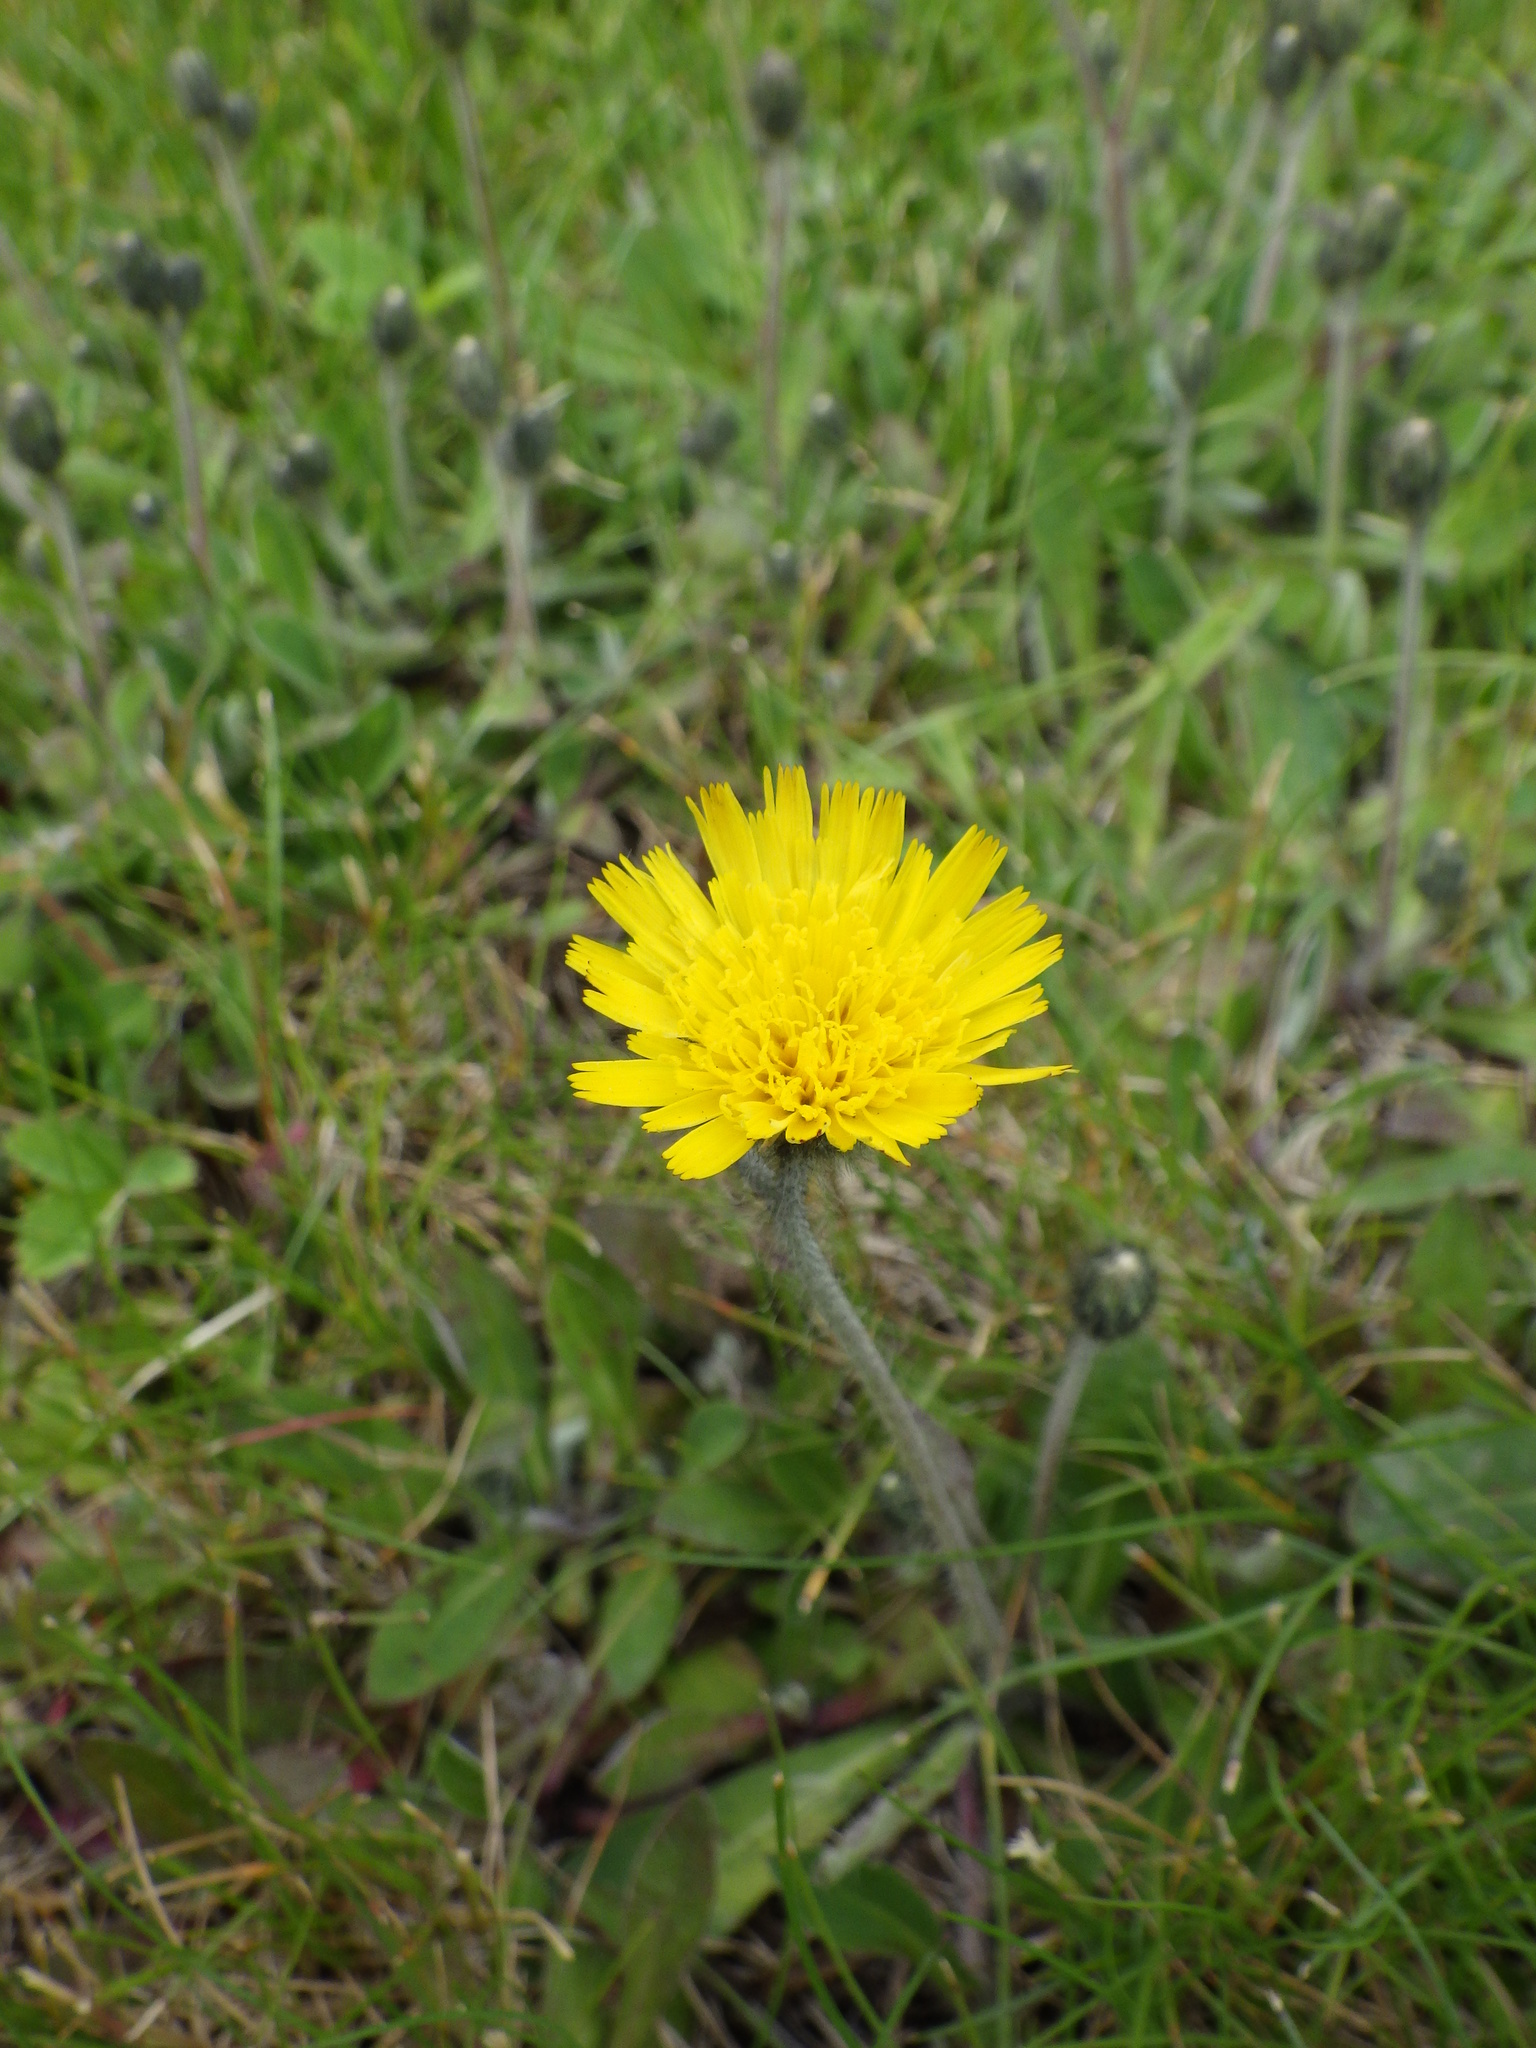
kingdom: Plantae
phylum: Tracheophyta
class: Magnoliopsida
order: Asterales
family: Asteraceae
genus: Pilosella
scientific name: Pilosella officinarum
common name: Mouse-ear hawkweed
